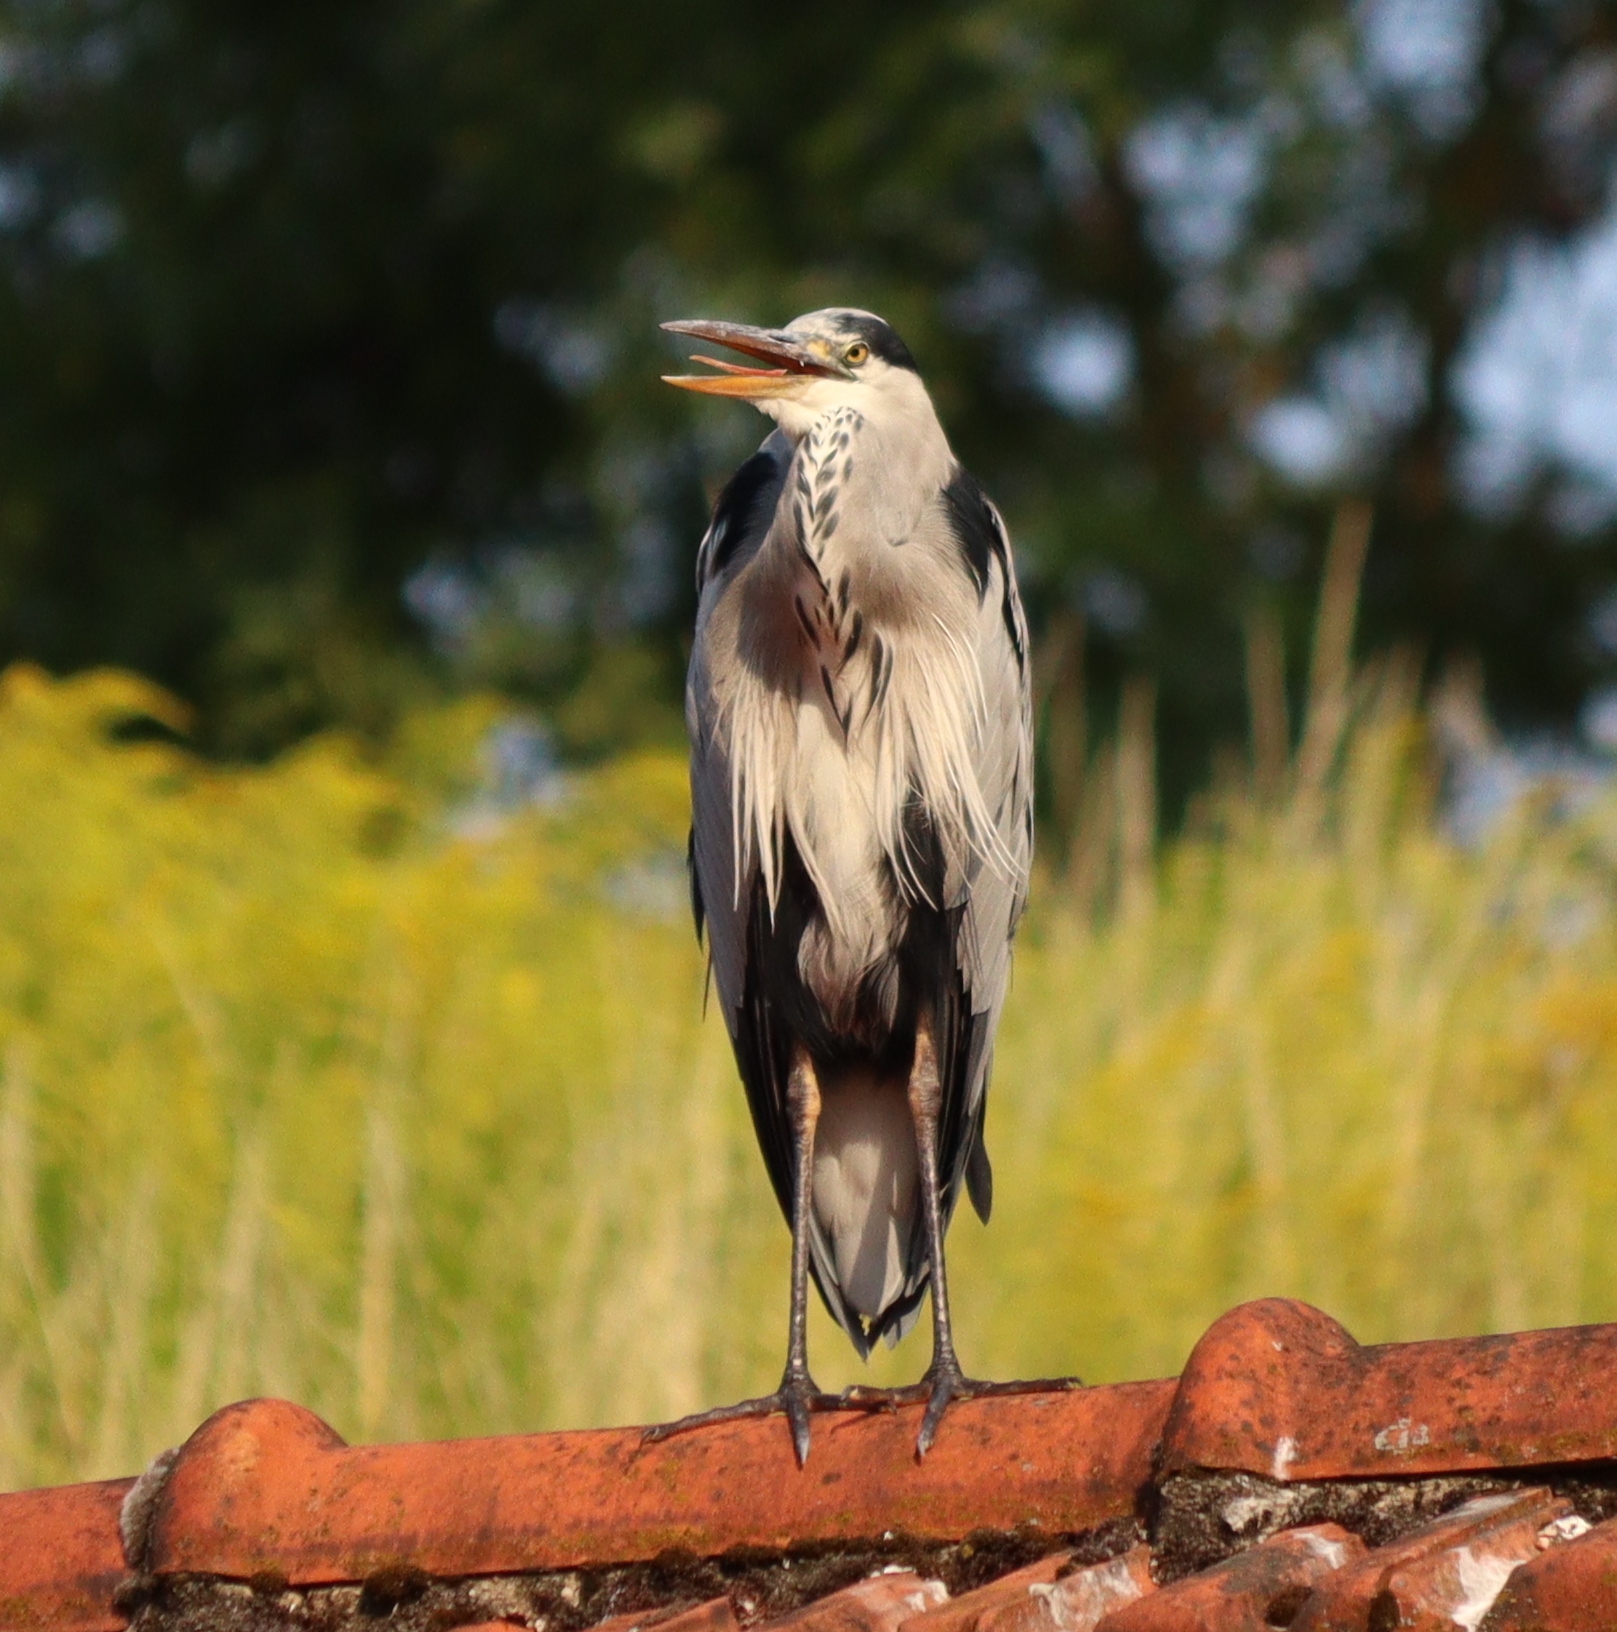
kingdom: Animalia
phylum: Chordata
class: Aves
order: Pelecaniformes
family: Ardeidae
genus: Ardea
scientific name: Ardea cinerea
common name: Grey heron
